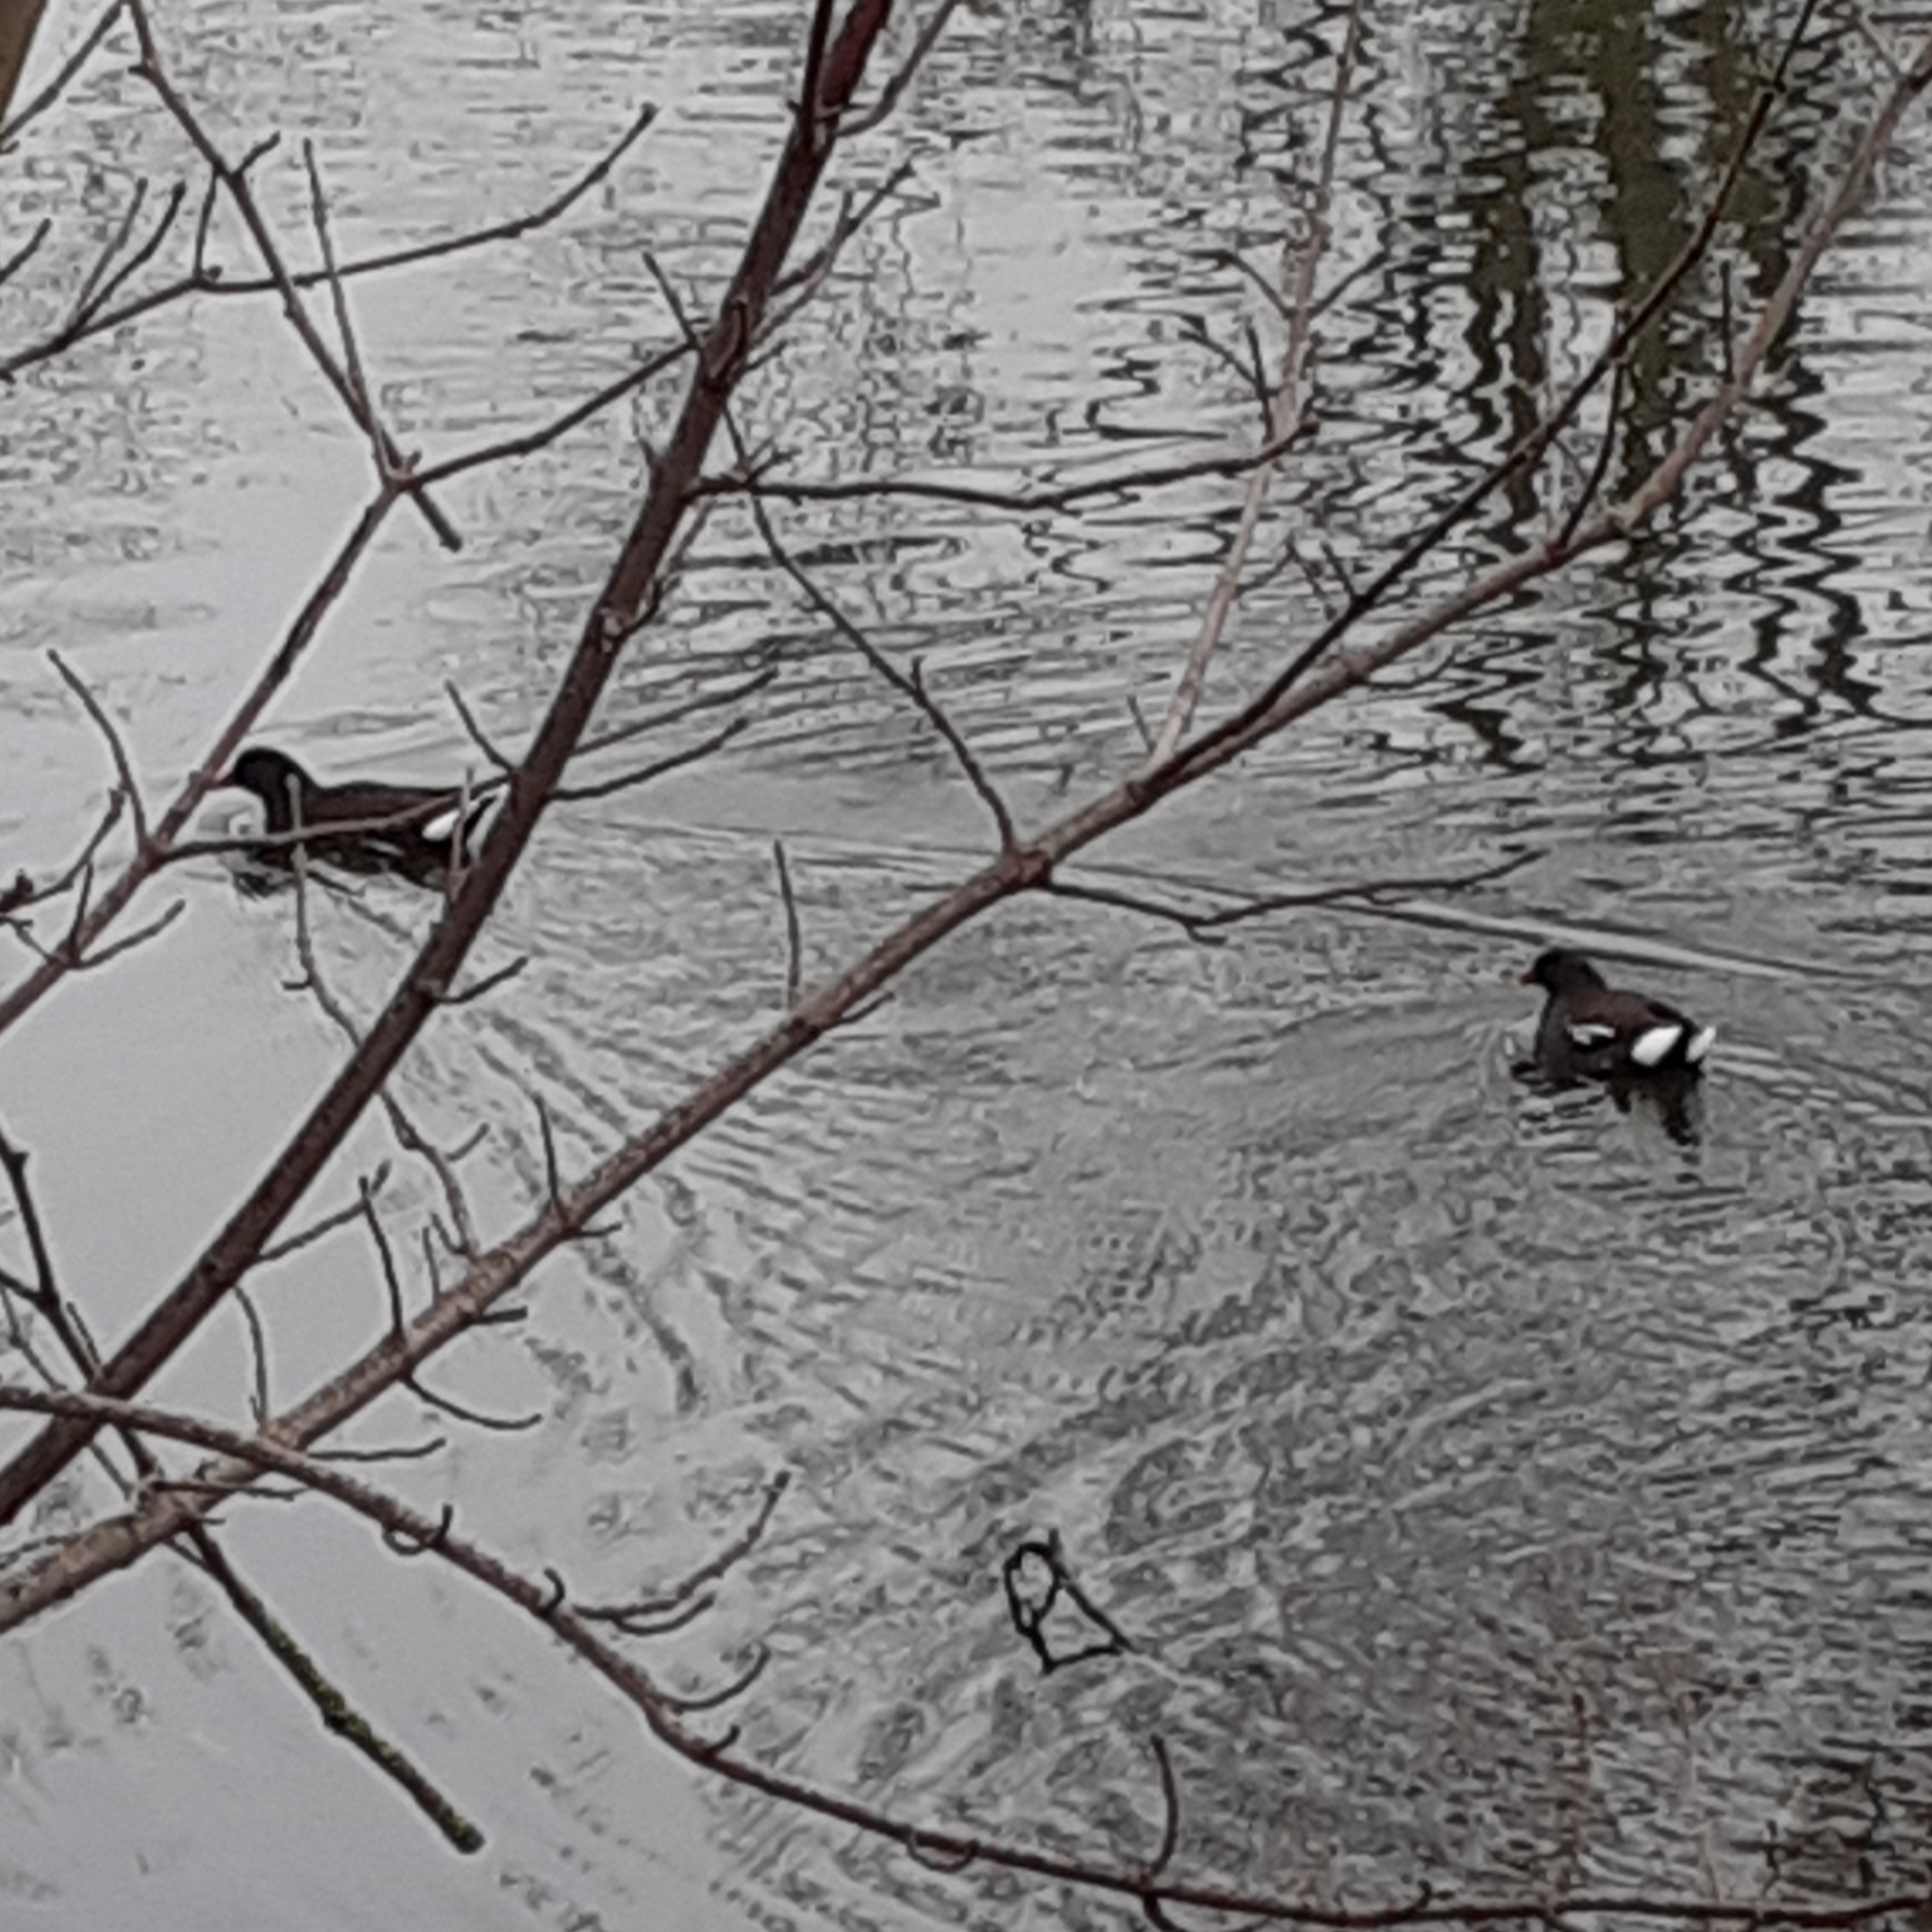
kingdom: Animalia
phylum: Chordata
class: Aves
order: Gruiformes
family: Rallidae
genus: Gallinula
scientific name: Gallinula chloropus
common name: Common moorhen
